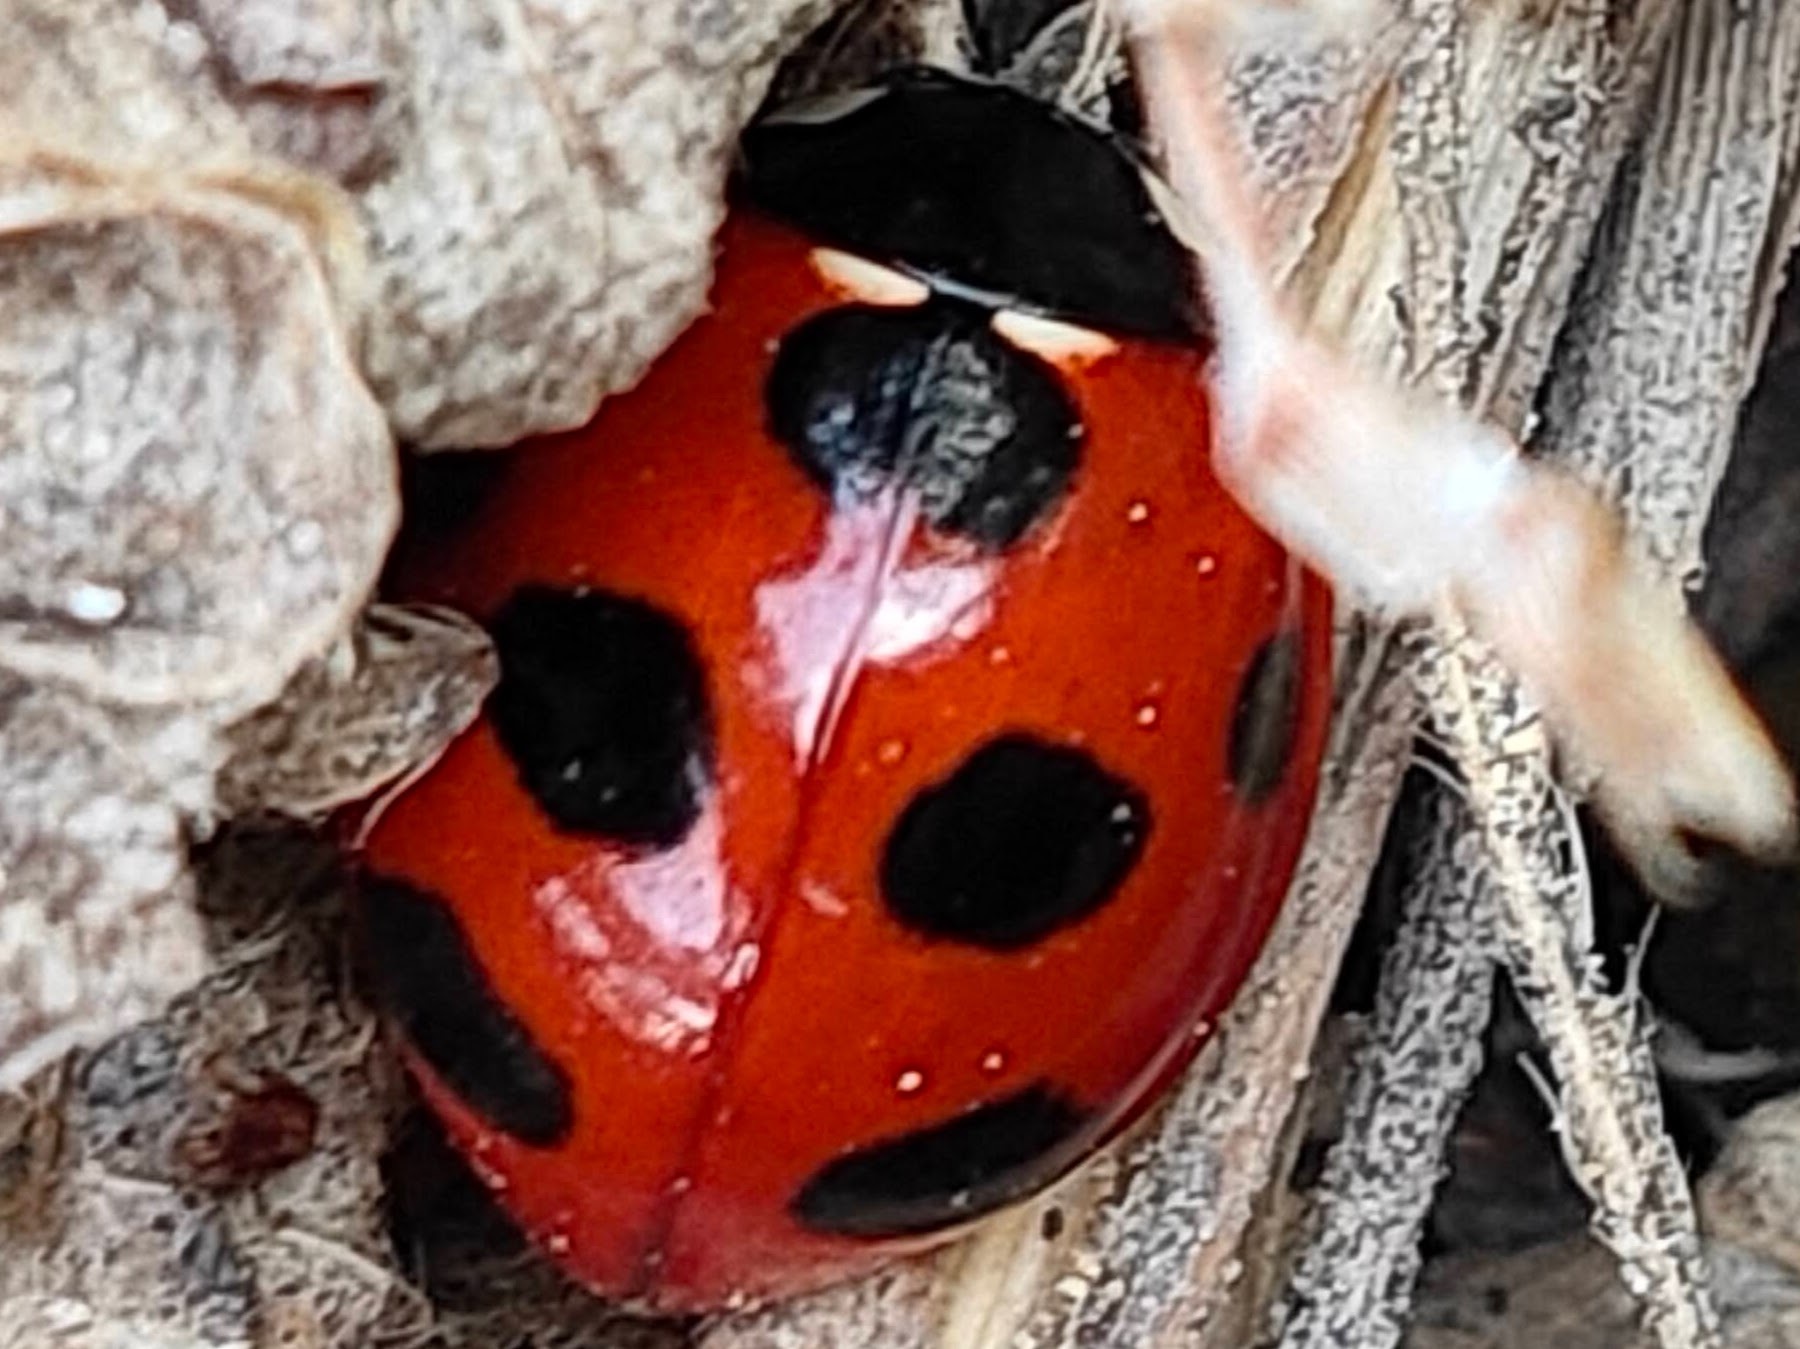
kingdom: Animalia
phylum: Arthropoda
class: Insecta
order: Coleoptera
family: Coccinellidae
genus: Coccinella
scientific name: Coccinella septempunctata
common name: Sevenspotted lady beetle
